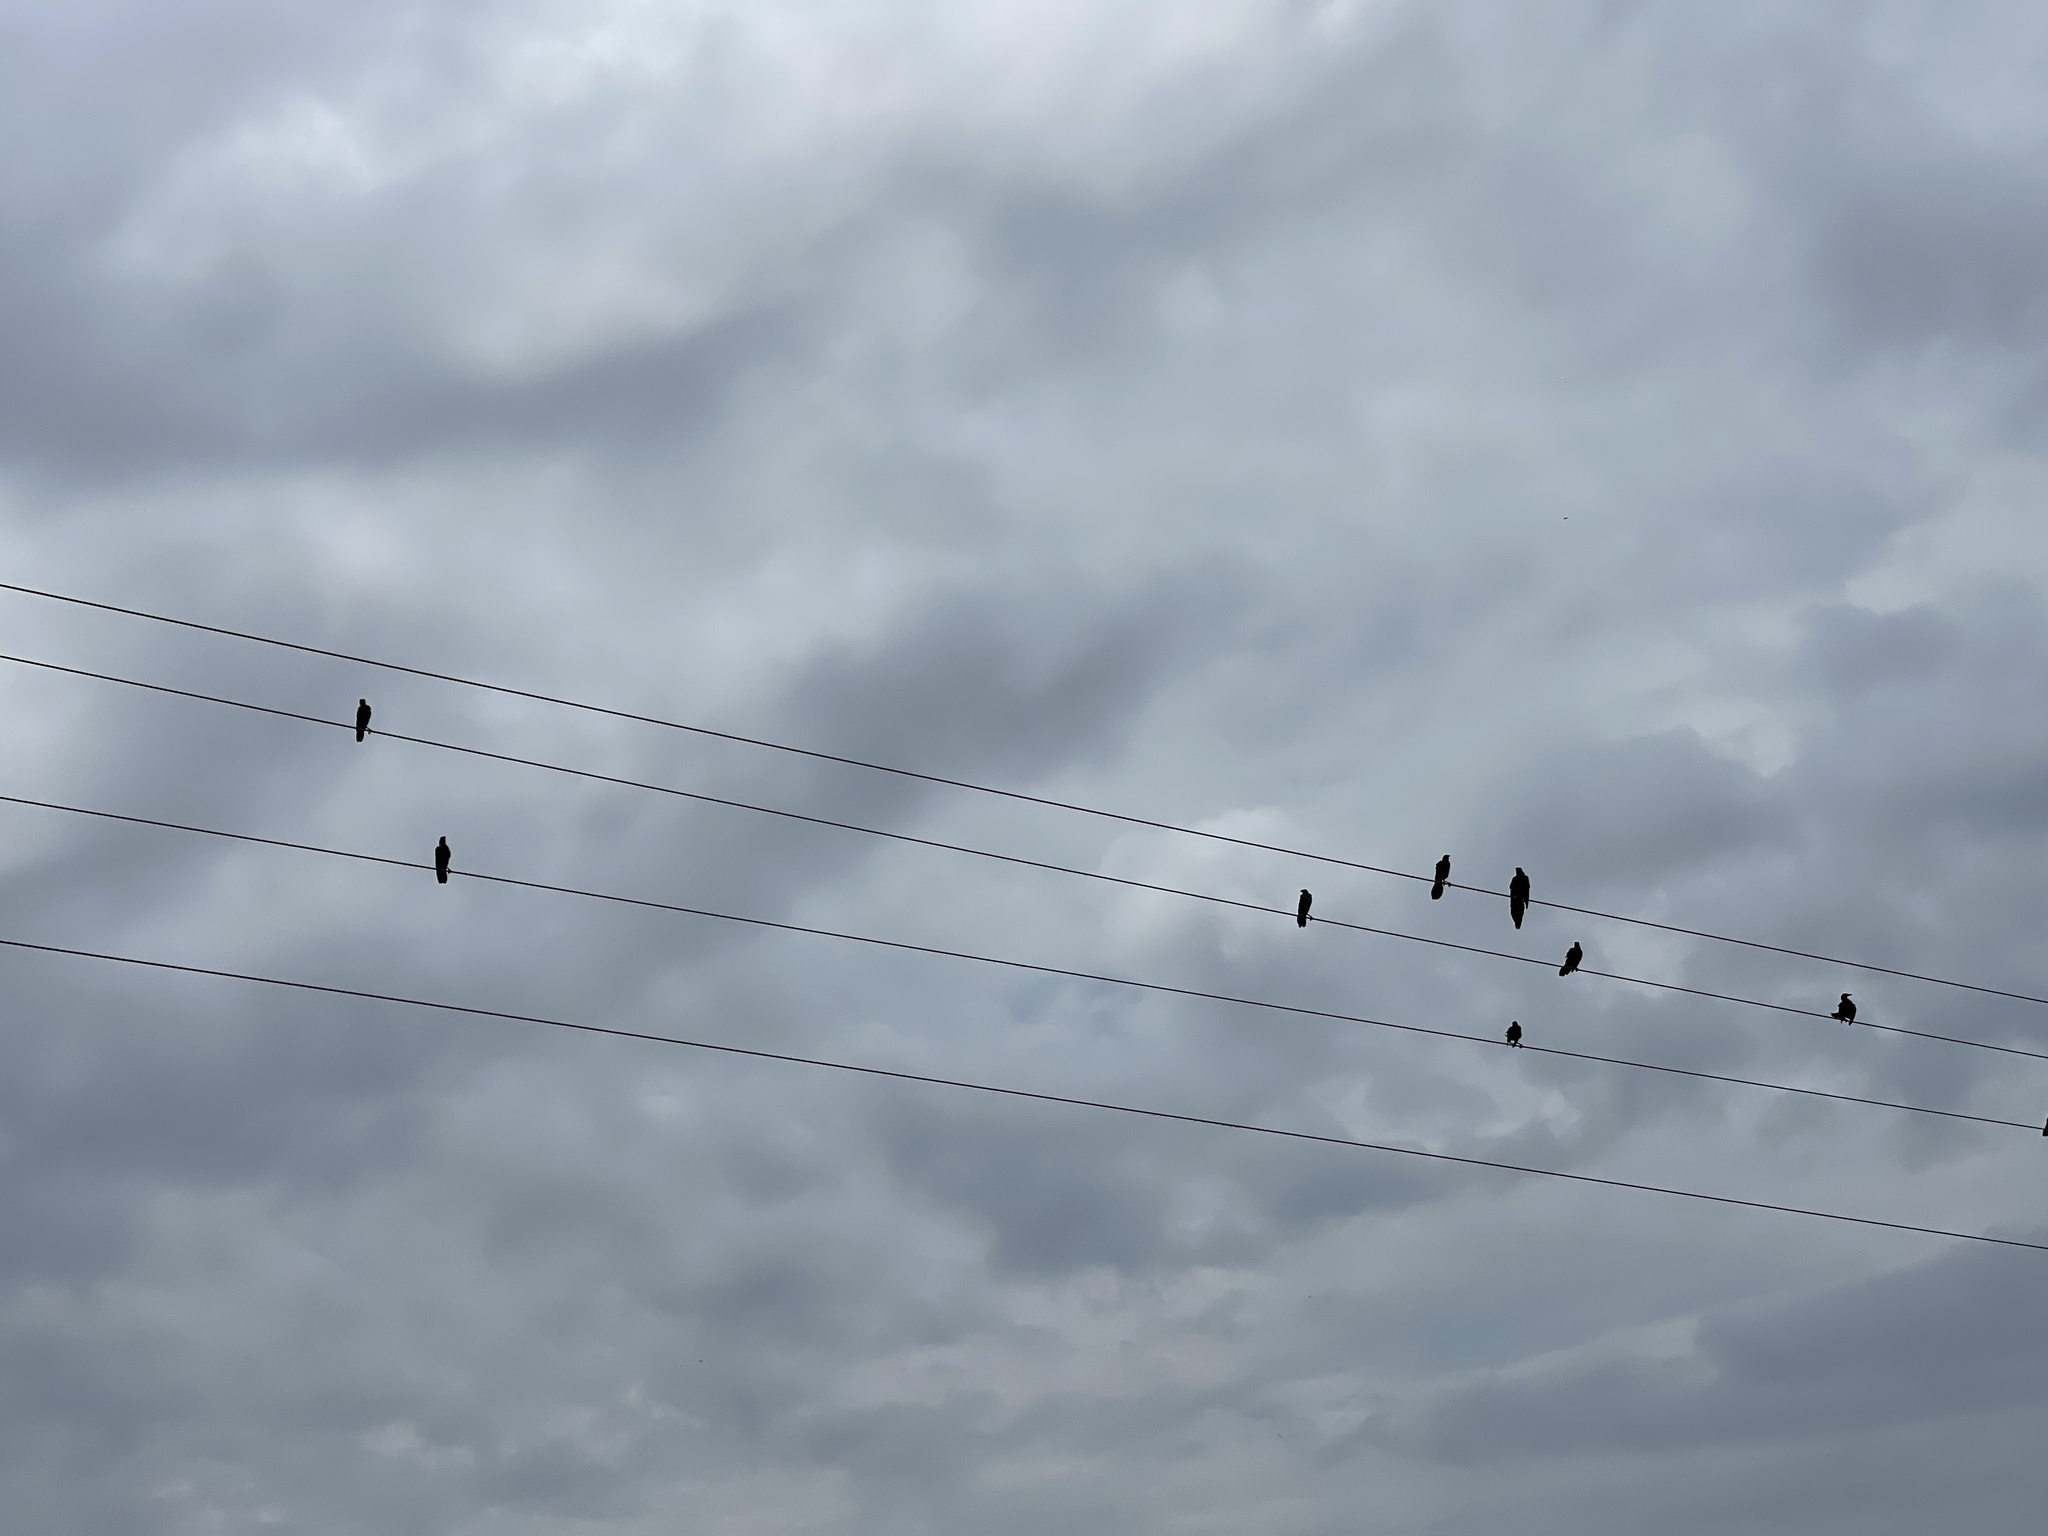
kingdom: Animalia
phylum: Chordata
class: Aves
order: Passeriformes
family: Icteridae
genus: Quiscalus
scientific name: Quiscalus mexicanus
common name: Great-tailed grackle
